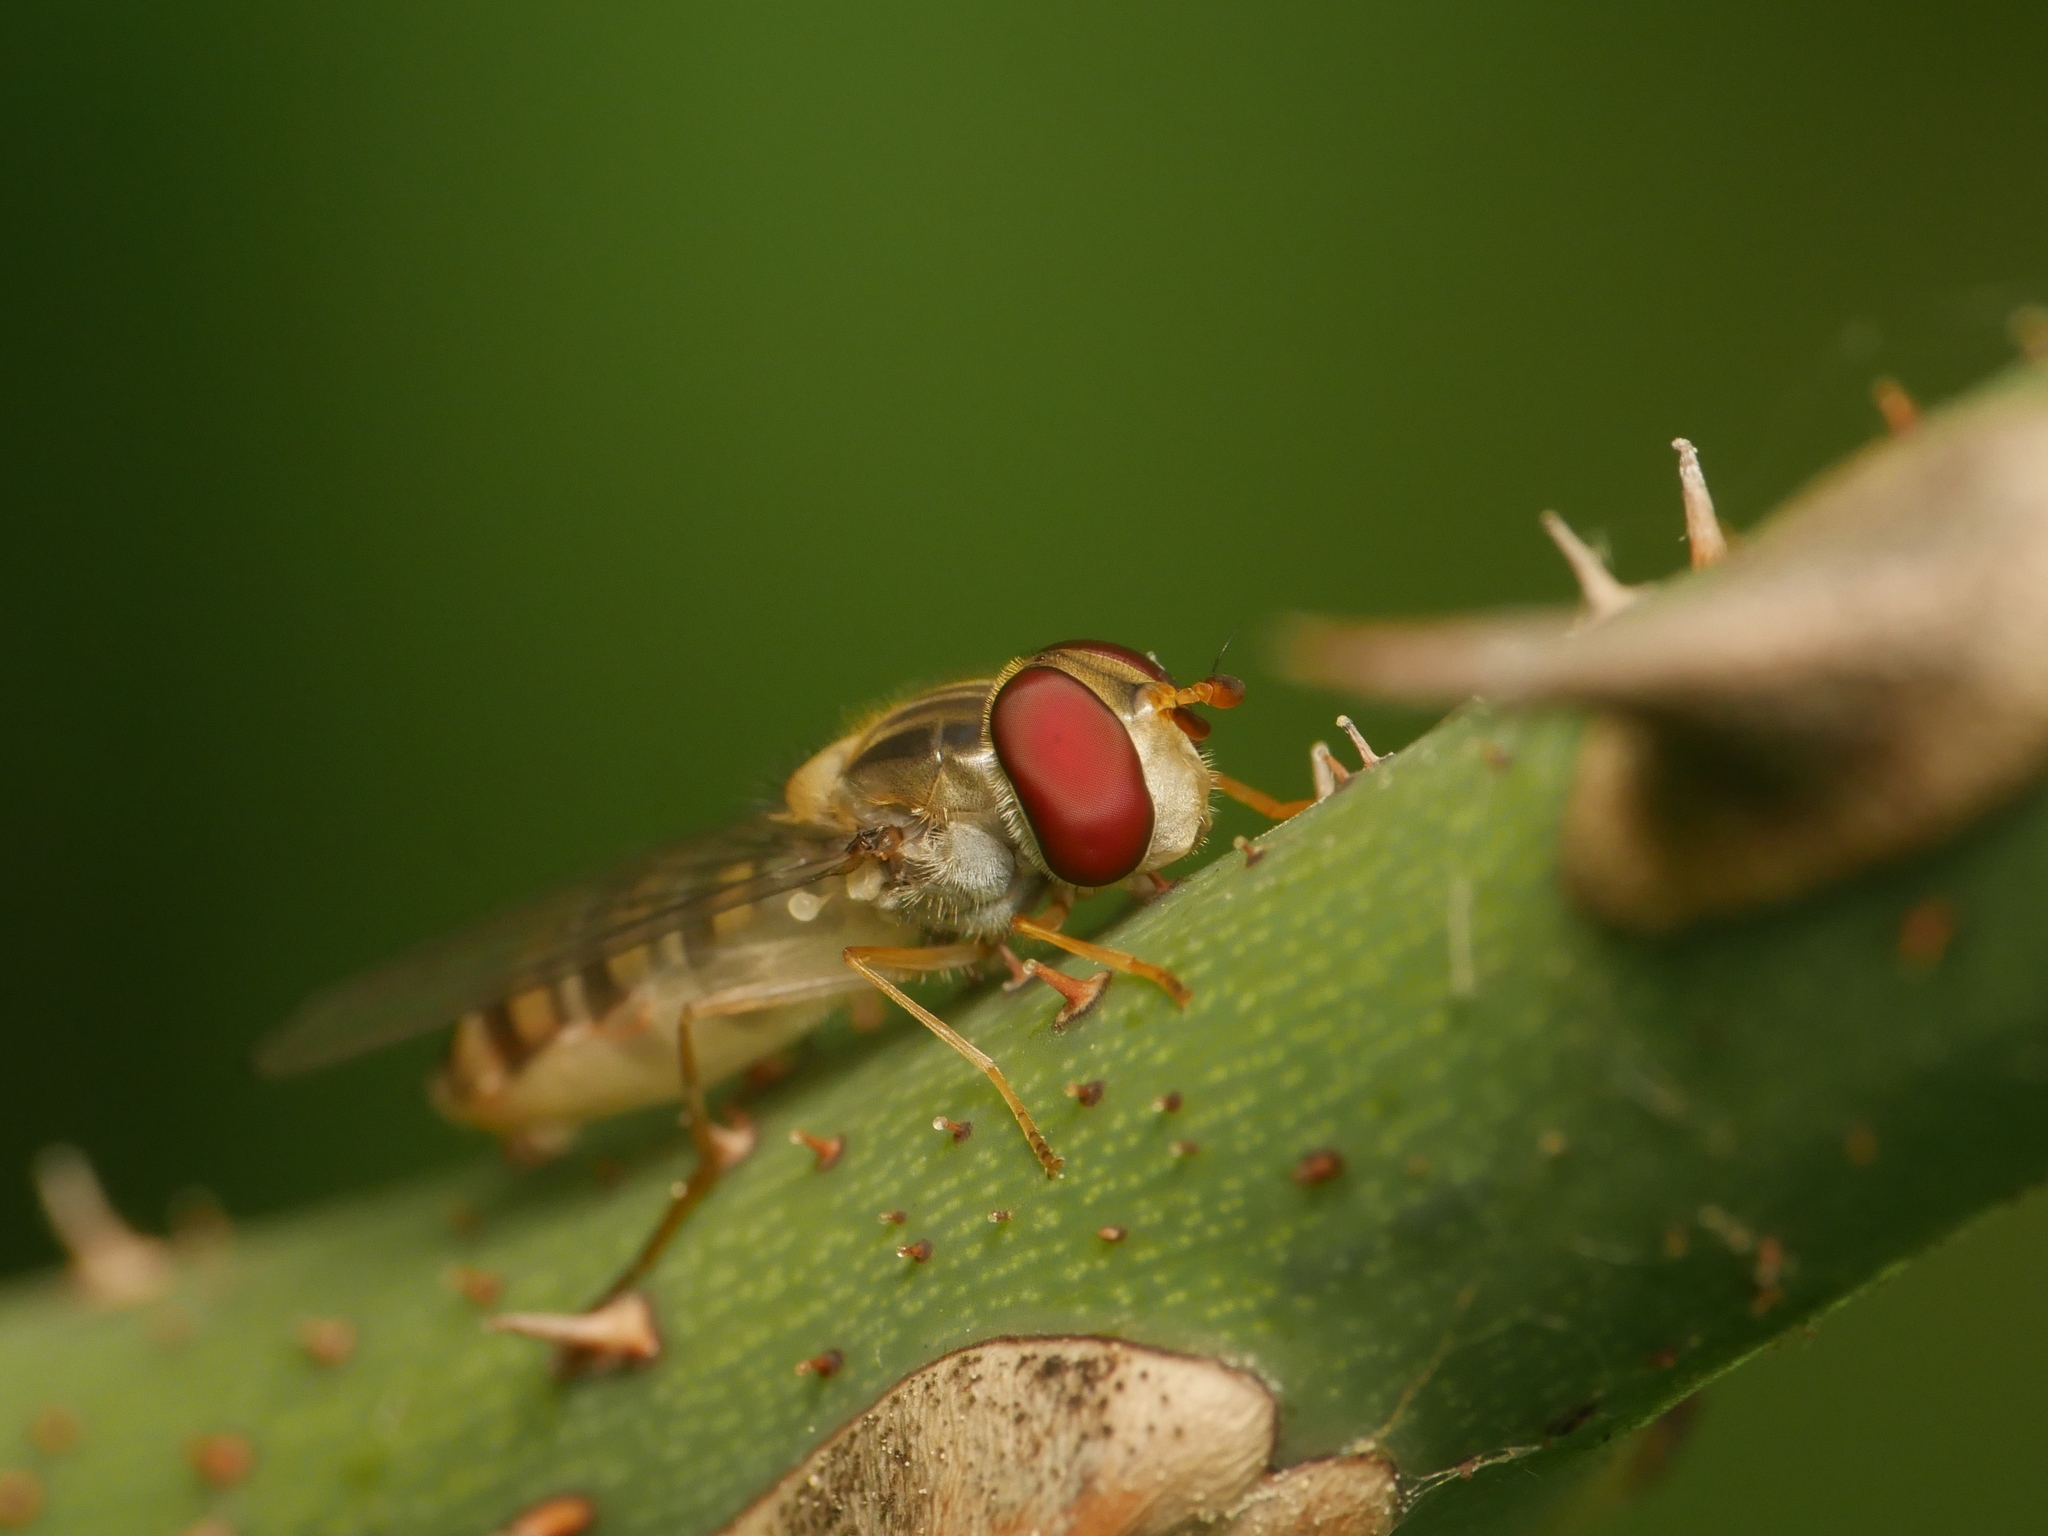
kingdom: Animalia
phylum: Arthropoda
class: Insecta
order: Diptera
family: Syrphidae
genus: Episyrphus
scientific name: Episyrphus balteatus
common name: Marmalade hoverfly
